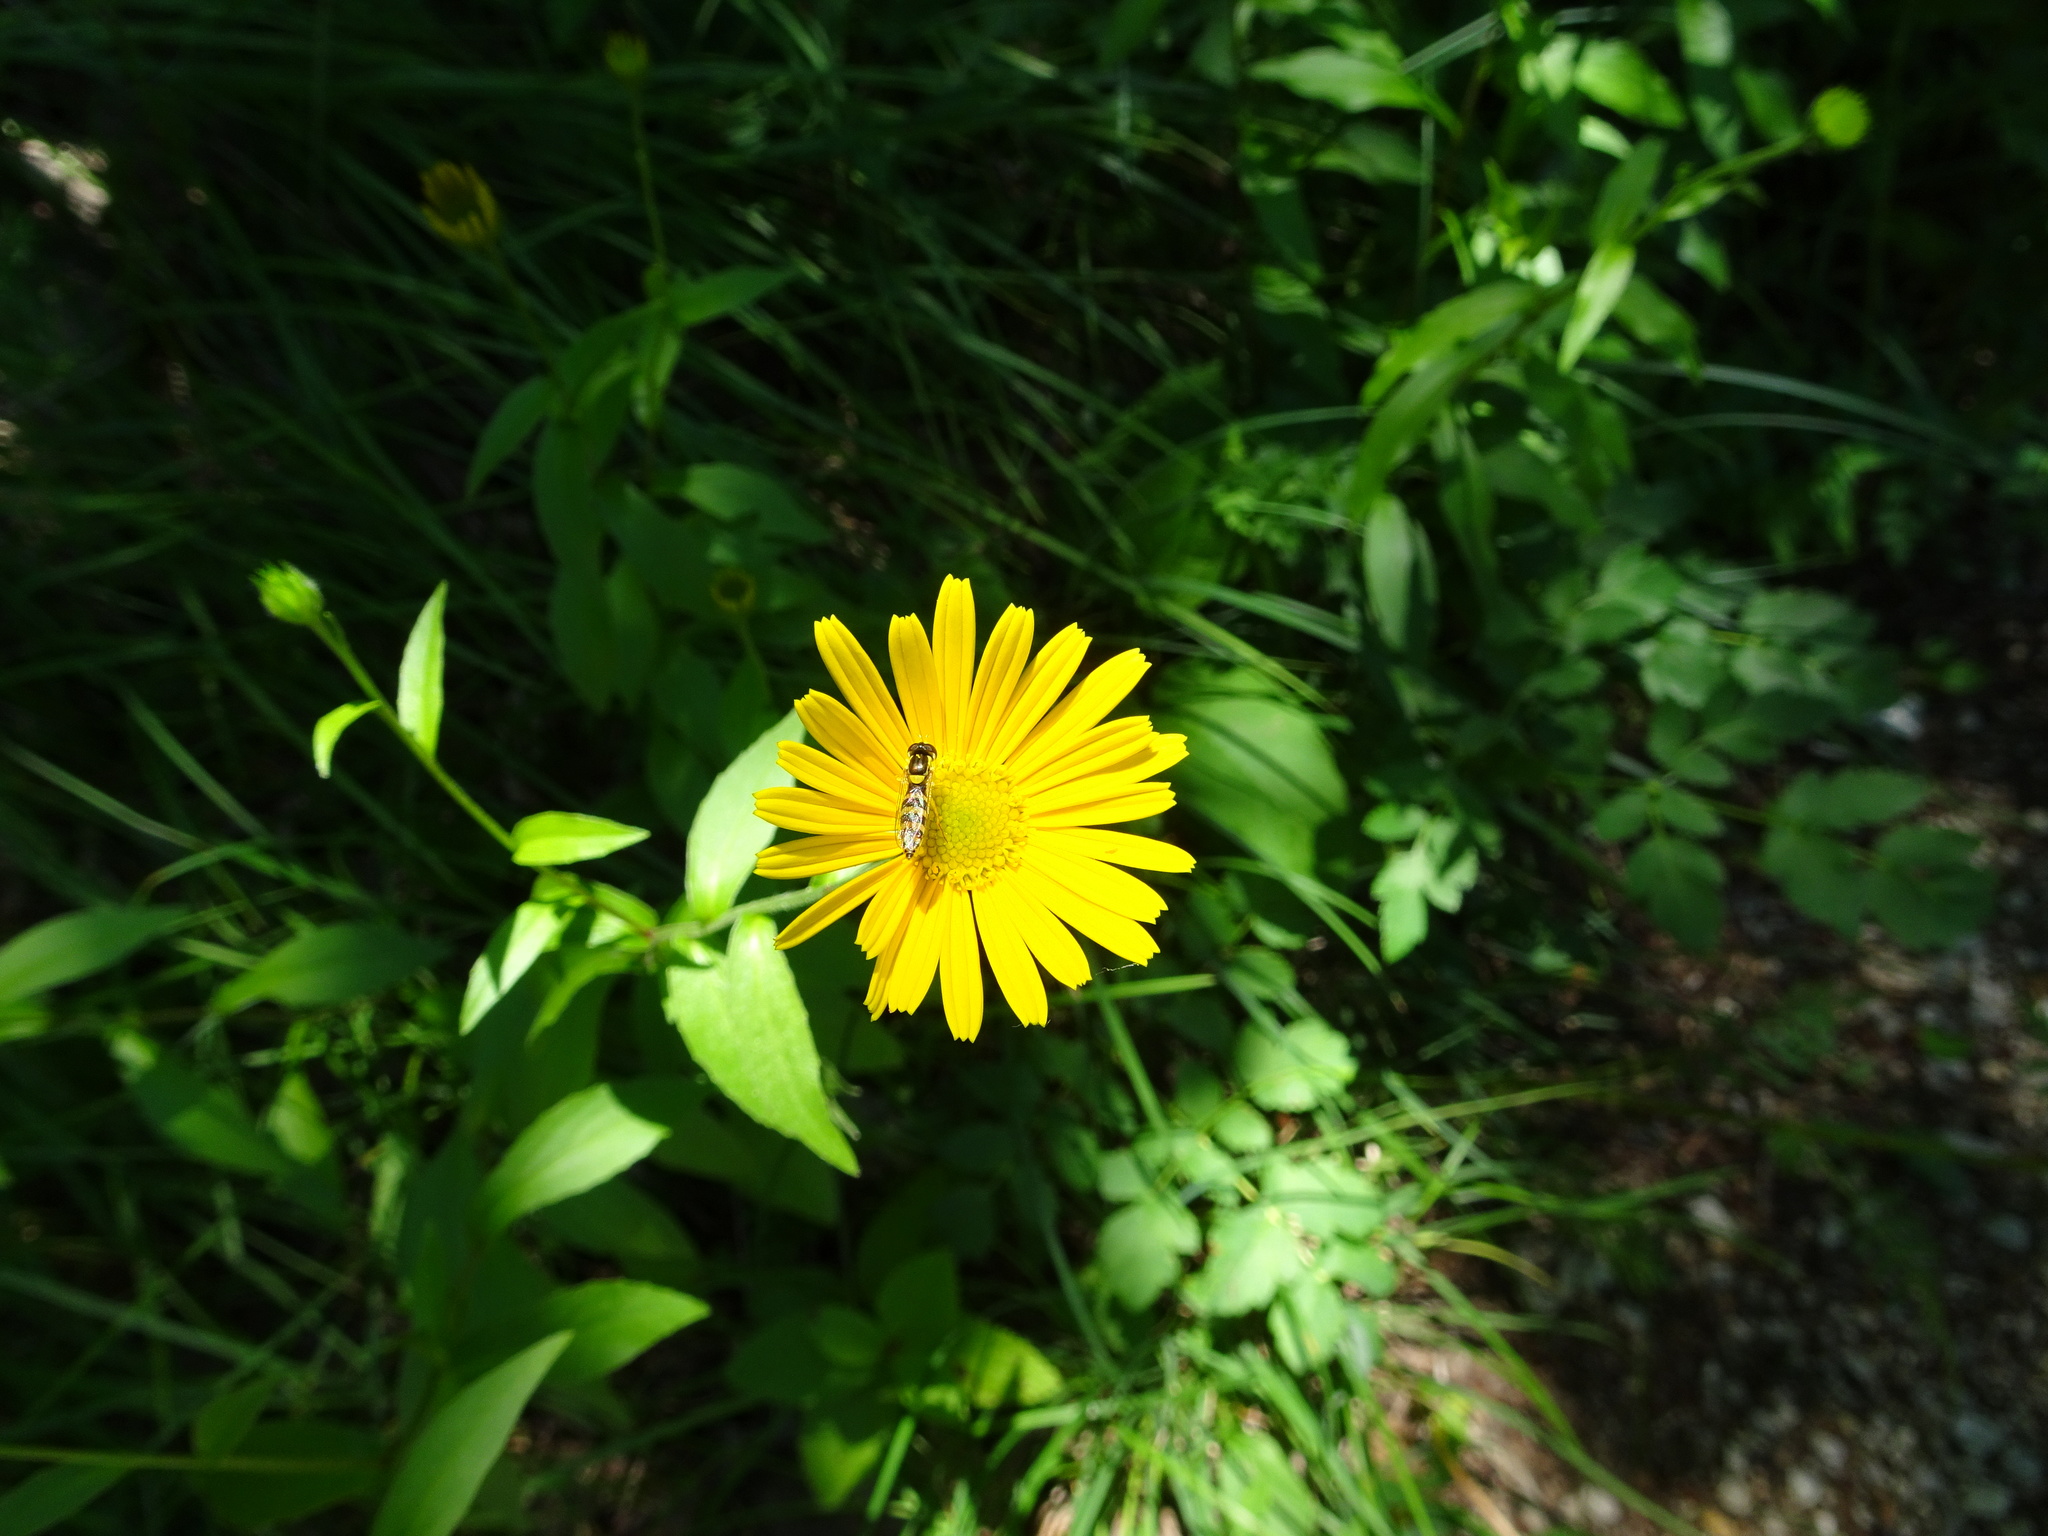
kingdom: Animalia
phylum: Arthropoda
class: Insecta
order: Diptera
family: Syrphidae
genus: Sphaerophoria
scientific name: Sphaerophoria
